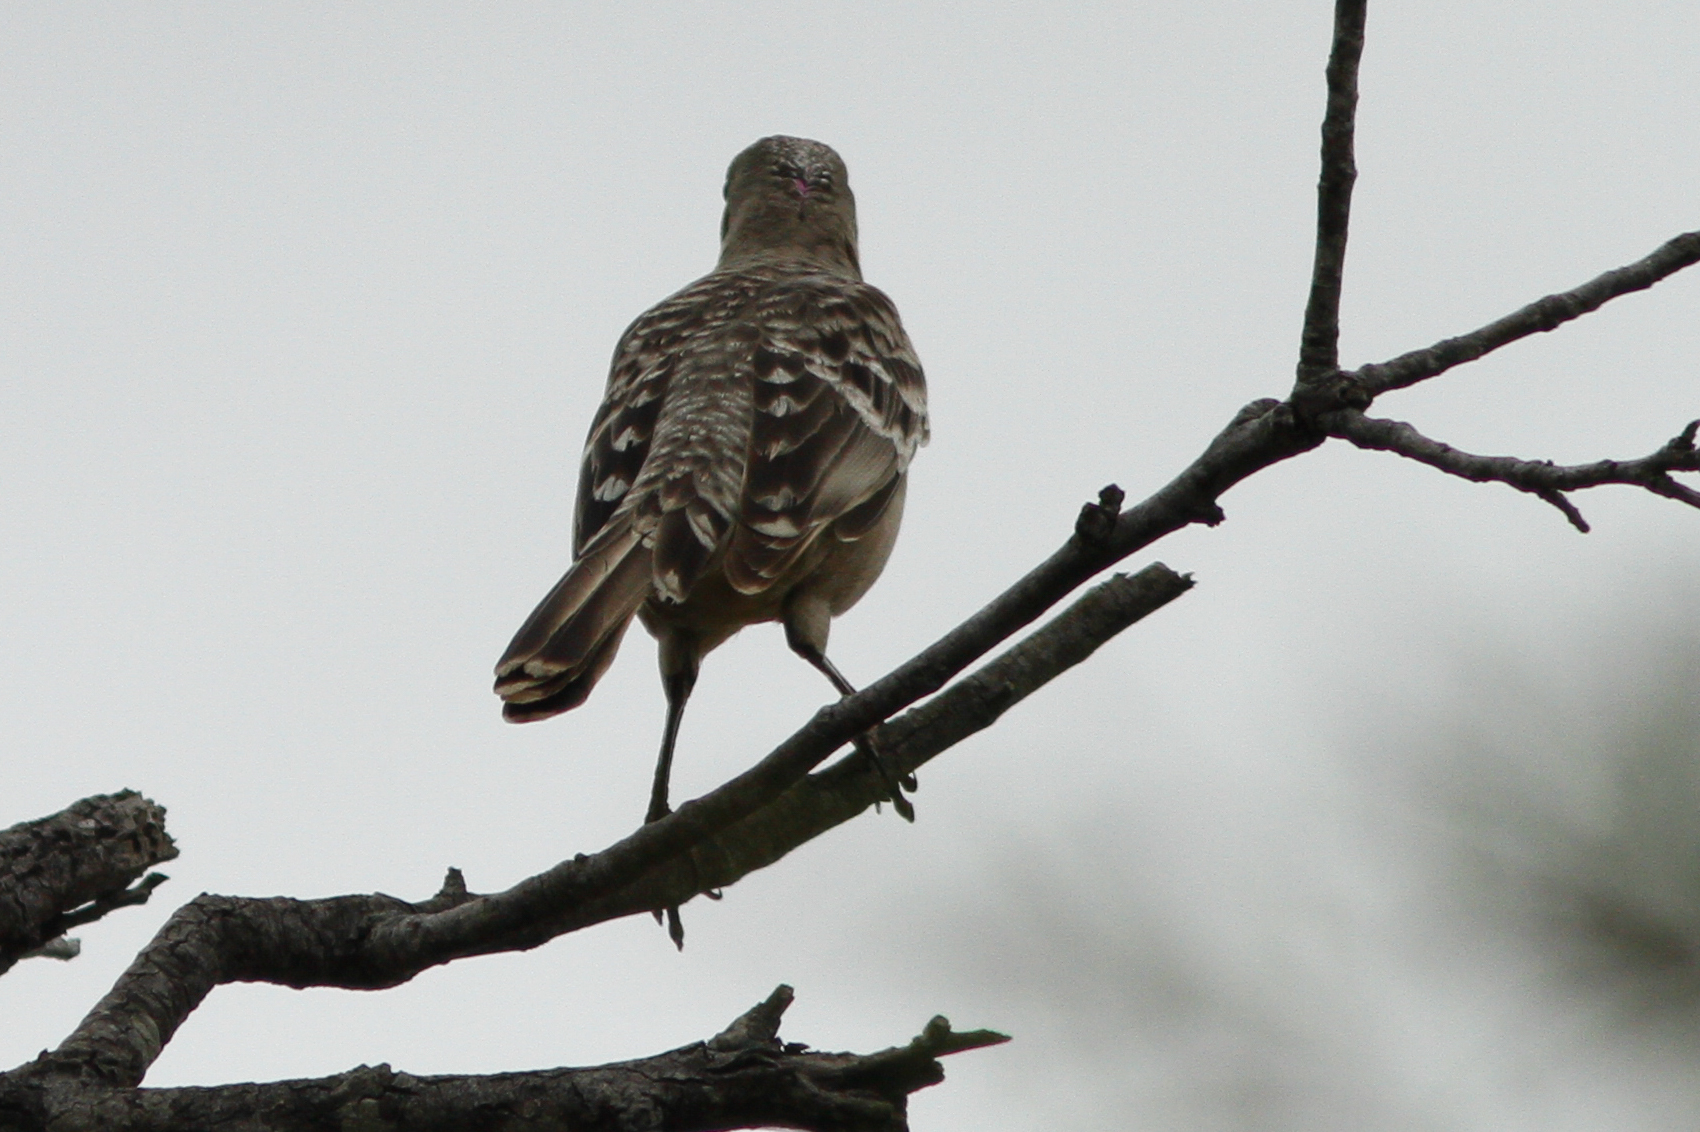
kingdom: Animalia
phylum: Chordata
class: Aves
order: Passeriformes
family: Ptilonorhynchidae
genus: Chlamydera
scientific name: Chlamydera nuchalis
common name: Great bowerbird
